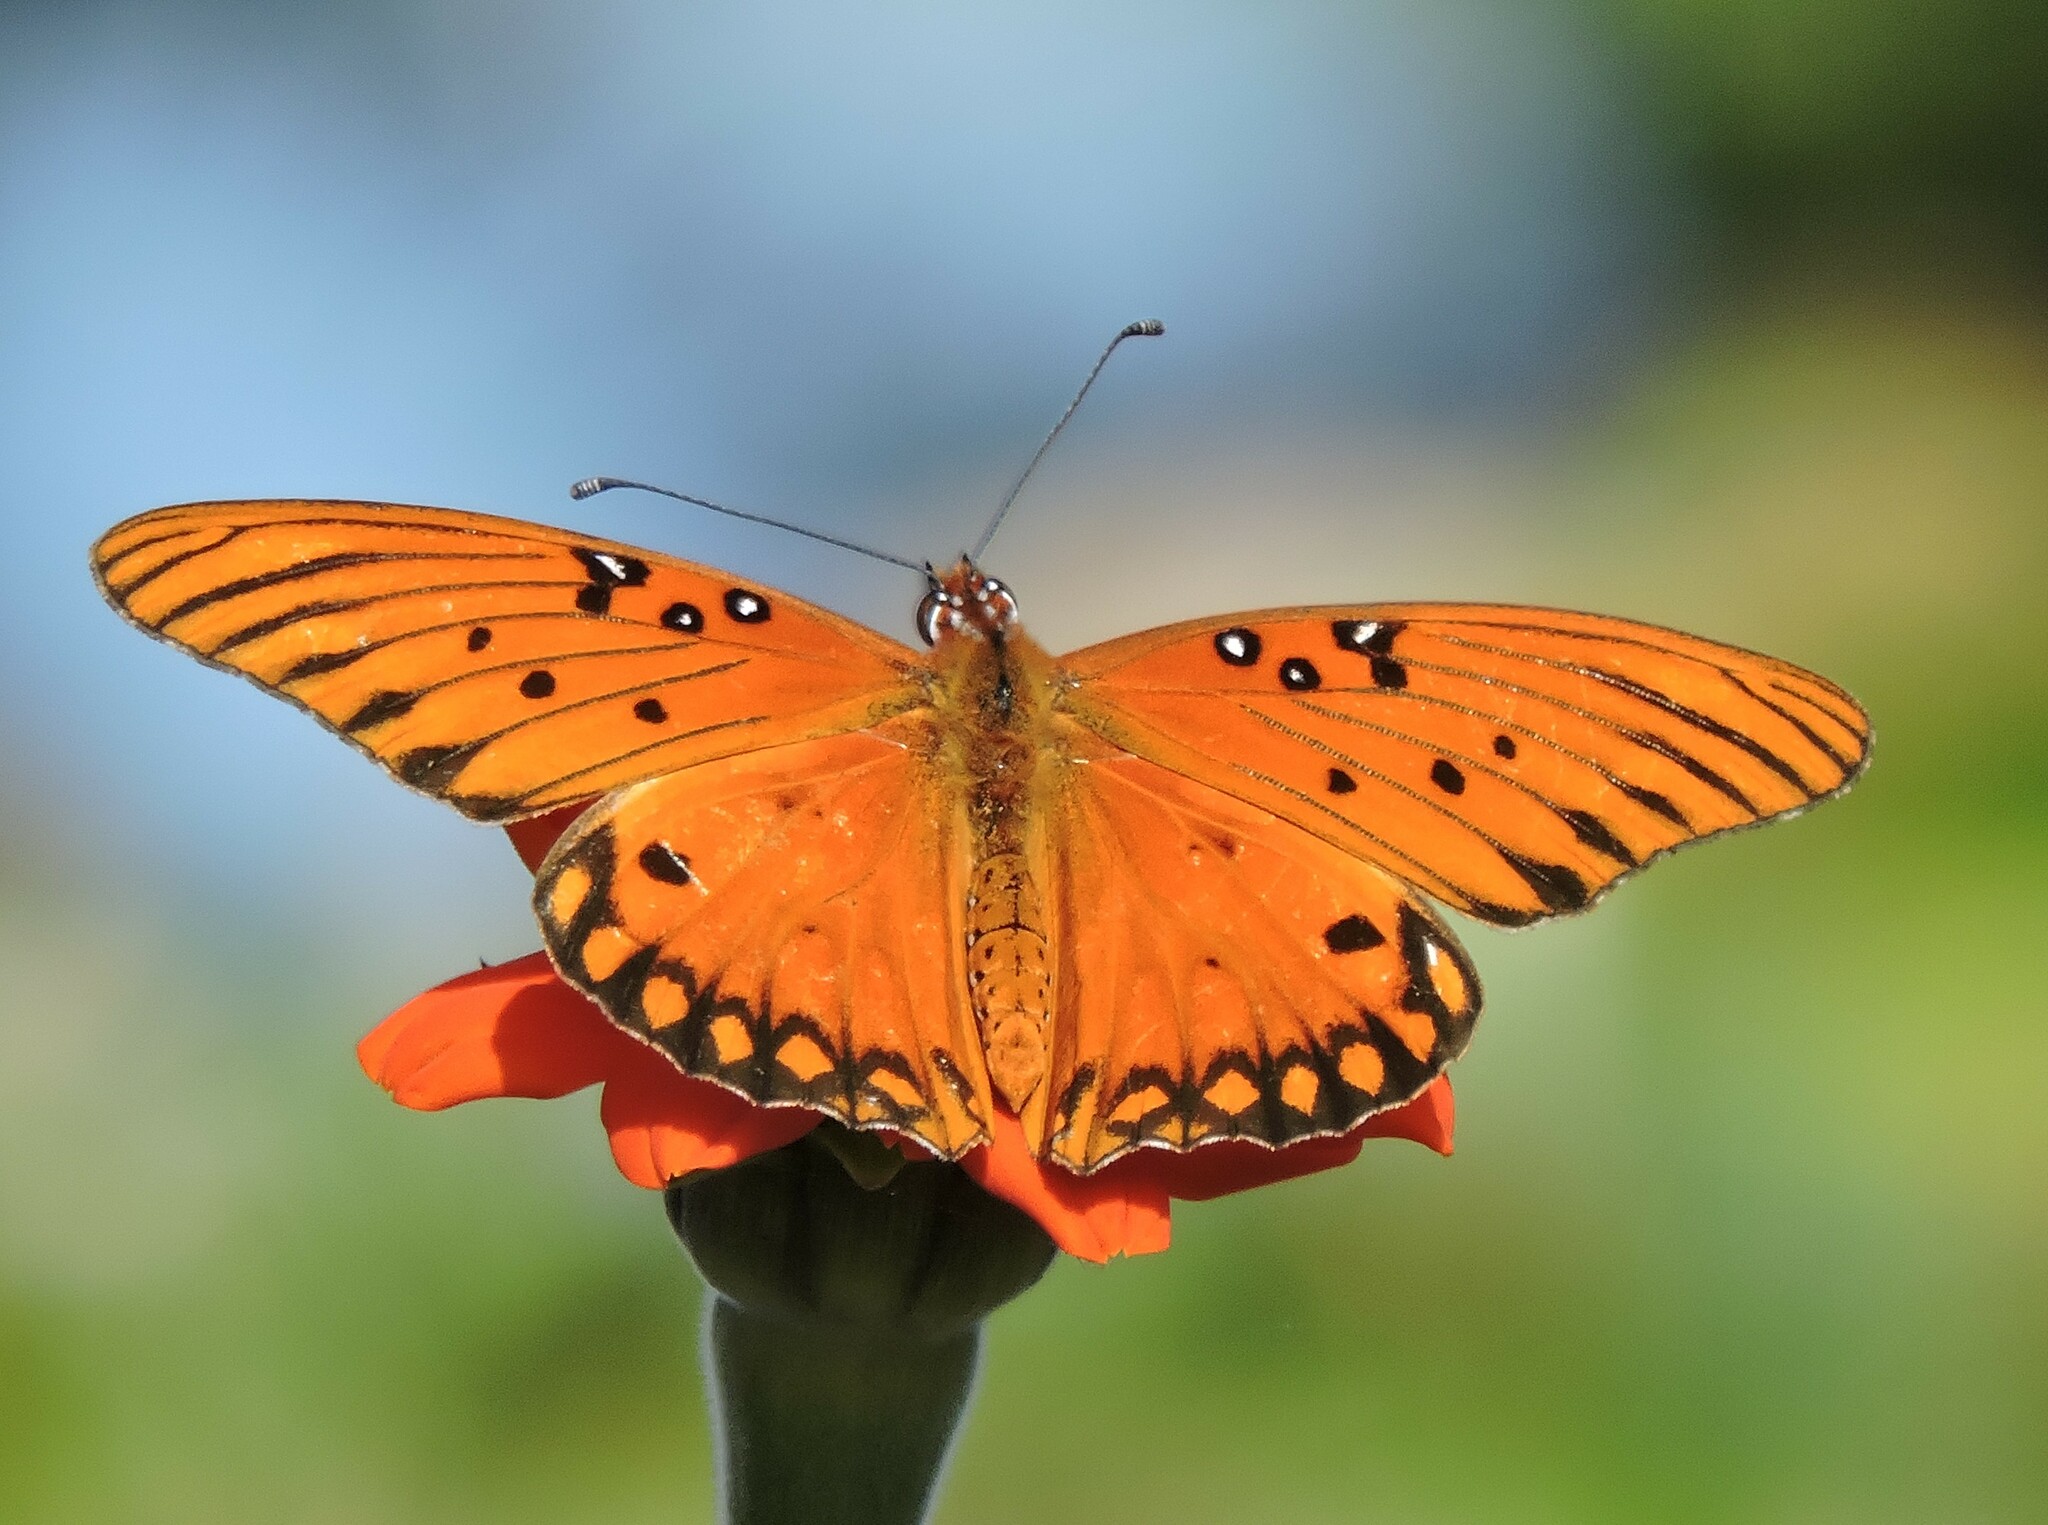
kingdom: Animalia
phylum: Arthropoda
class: Insecta
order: Lepidoptera
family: Nymphalidae
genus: Dione
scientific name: Dione vanillae
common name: Gulf fritillary
